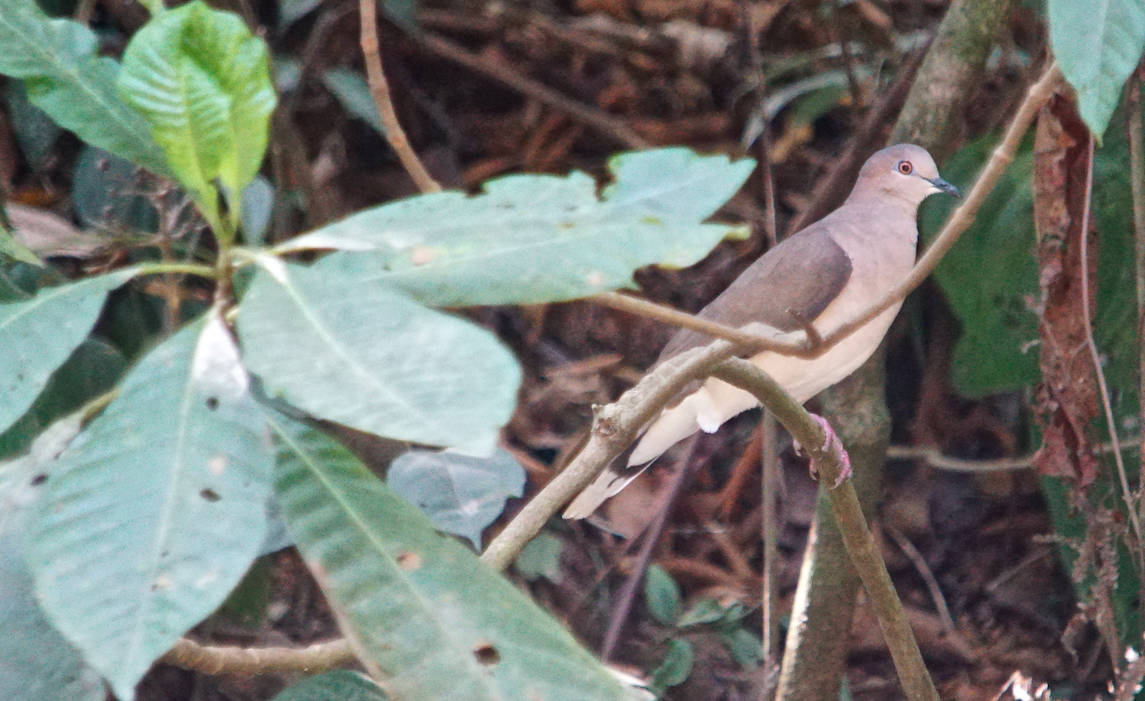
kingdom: Animalia
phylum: Chordata
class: Aves
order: Columbiformes
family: Columbidae
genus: Leptotila
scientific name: Leptotila verreauxi
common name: White-tipped dove
